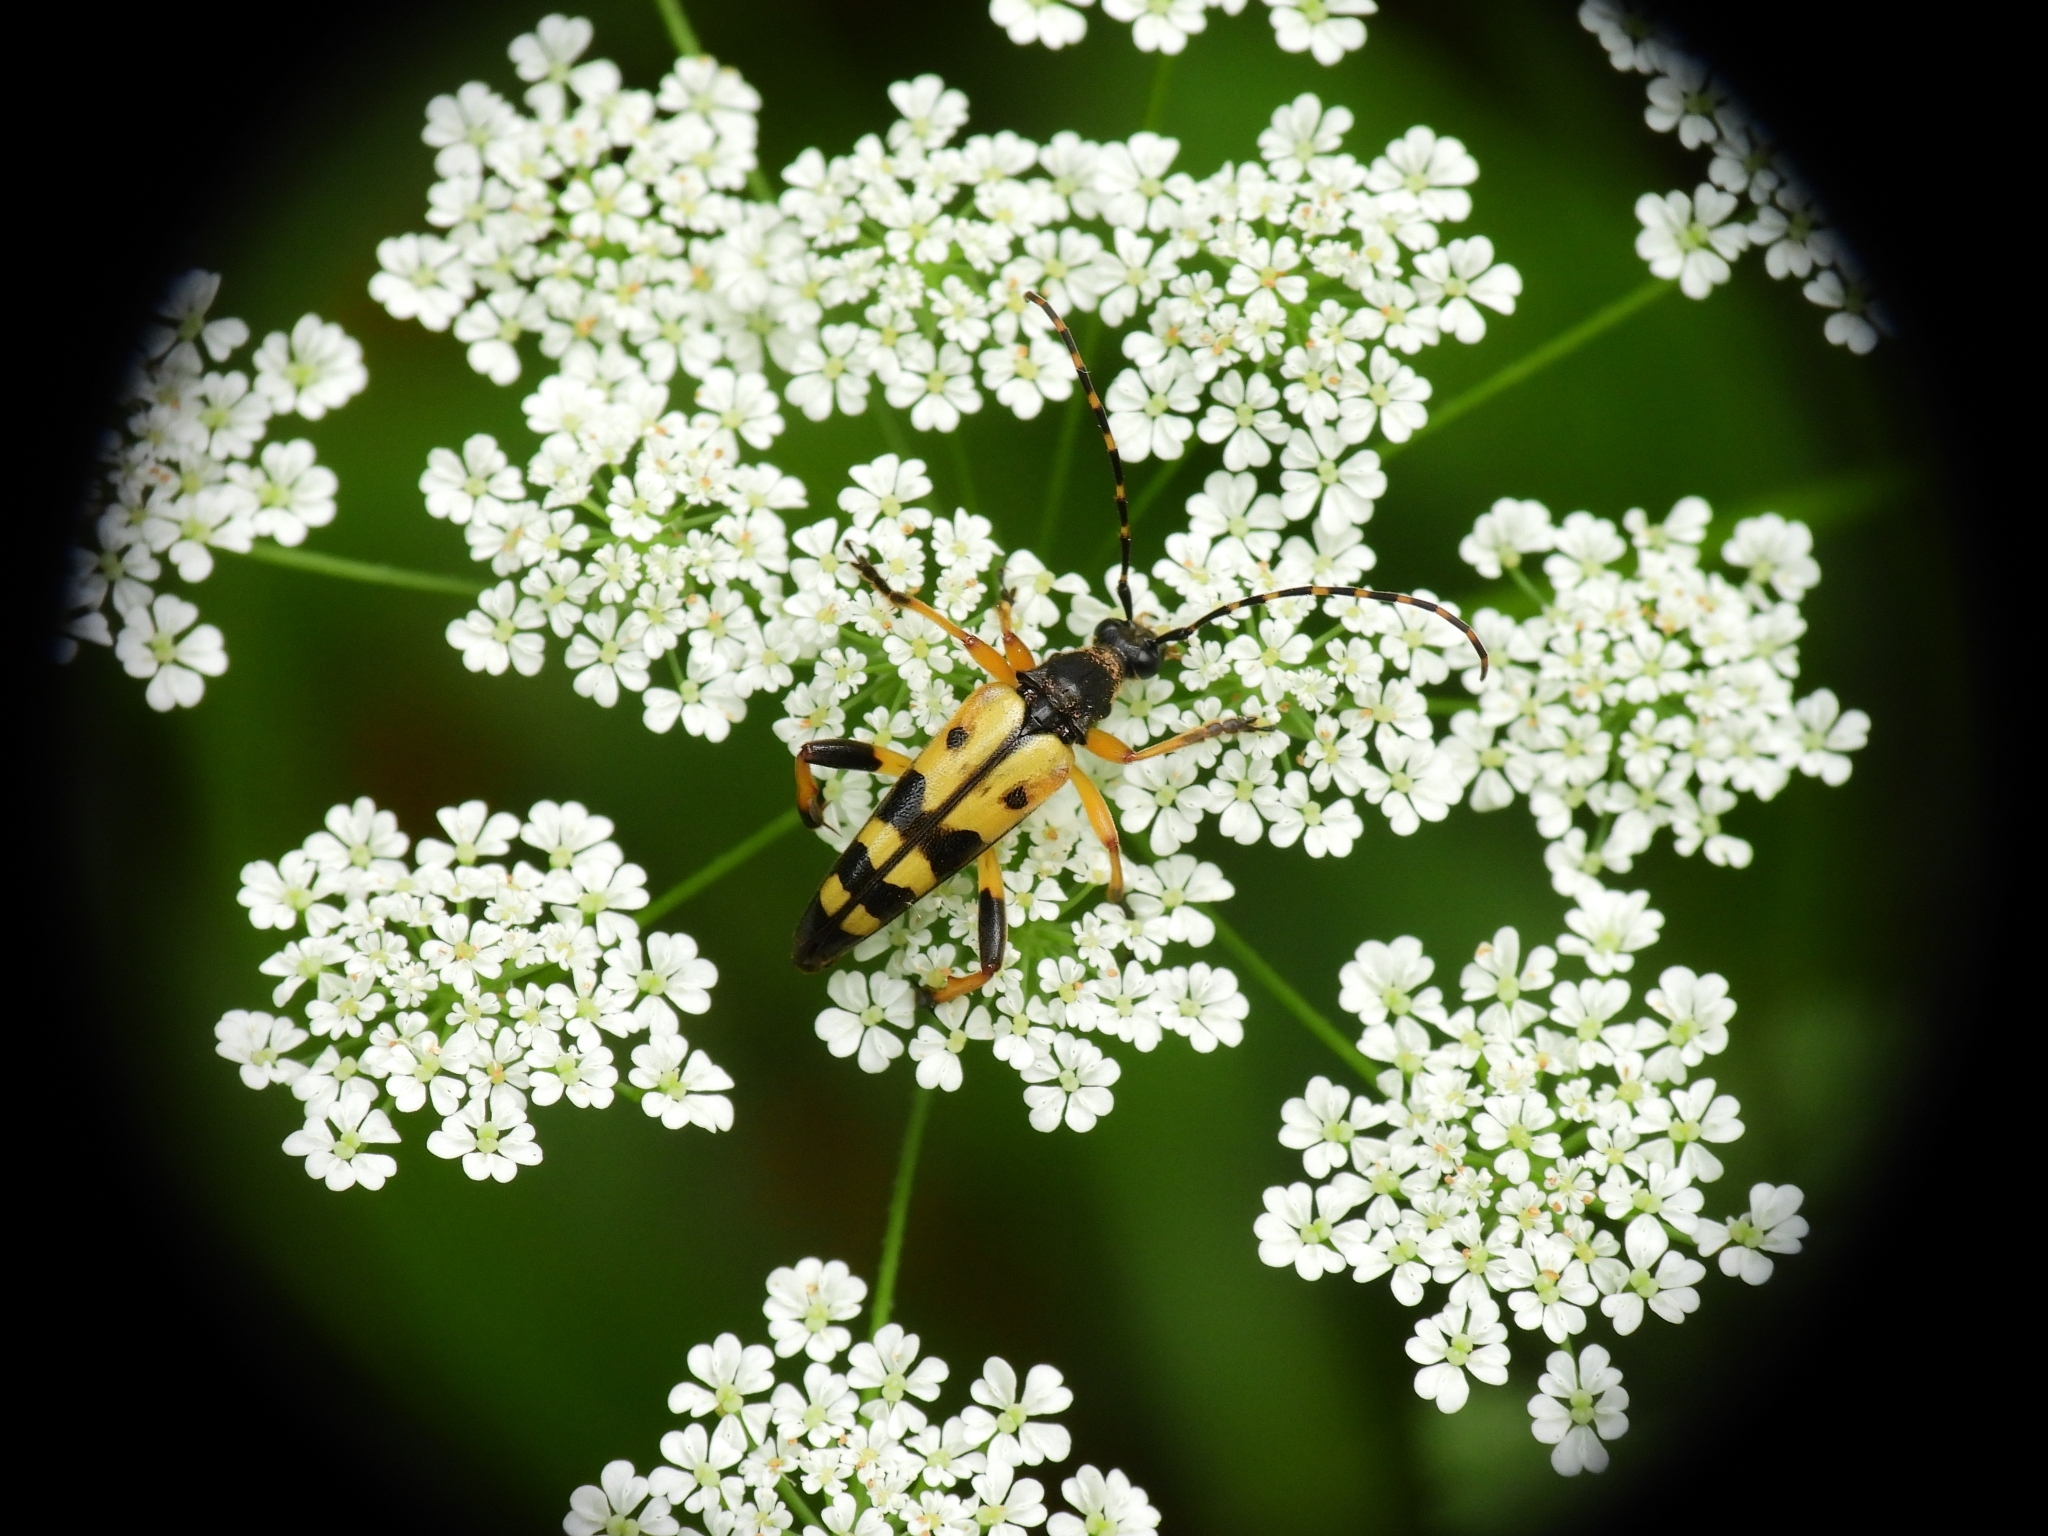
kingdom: Animalia
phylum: Arthropoda
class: Insecta
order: Coleoptera
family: Cerambycidae
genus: Rutpela
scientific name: Rutpela maculata
